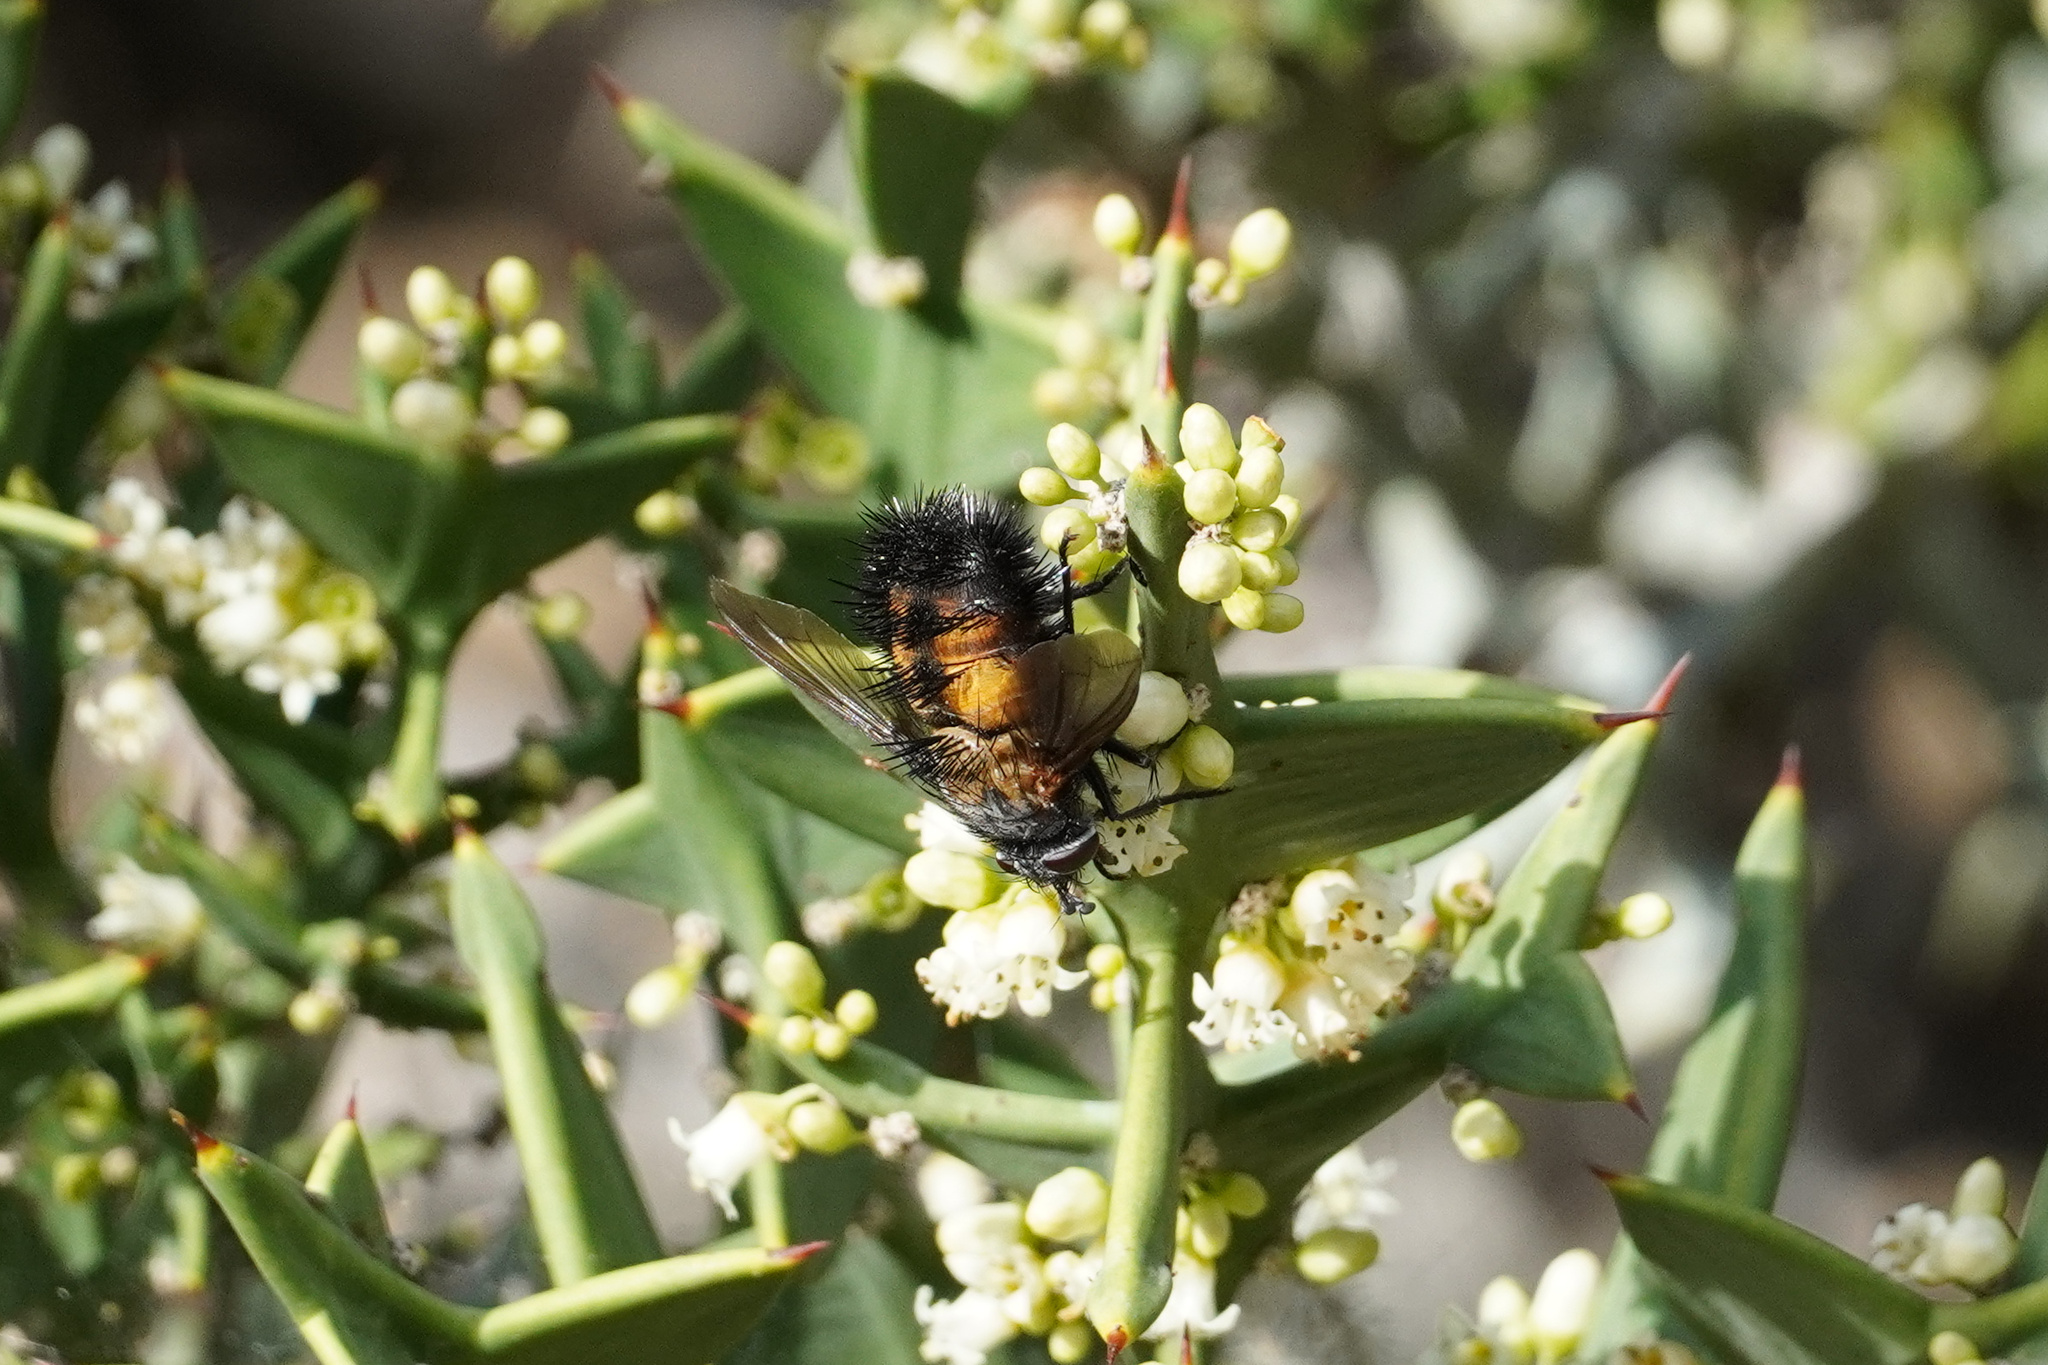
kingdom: Animalia
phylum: Arthropoda
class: Insecta
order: Diptera
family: Tachinidae
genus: Paradejeania
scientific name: Paradejeania rutilioides
